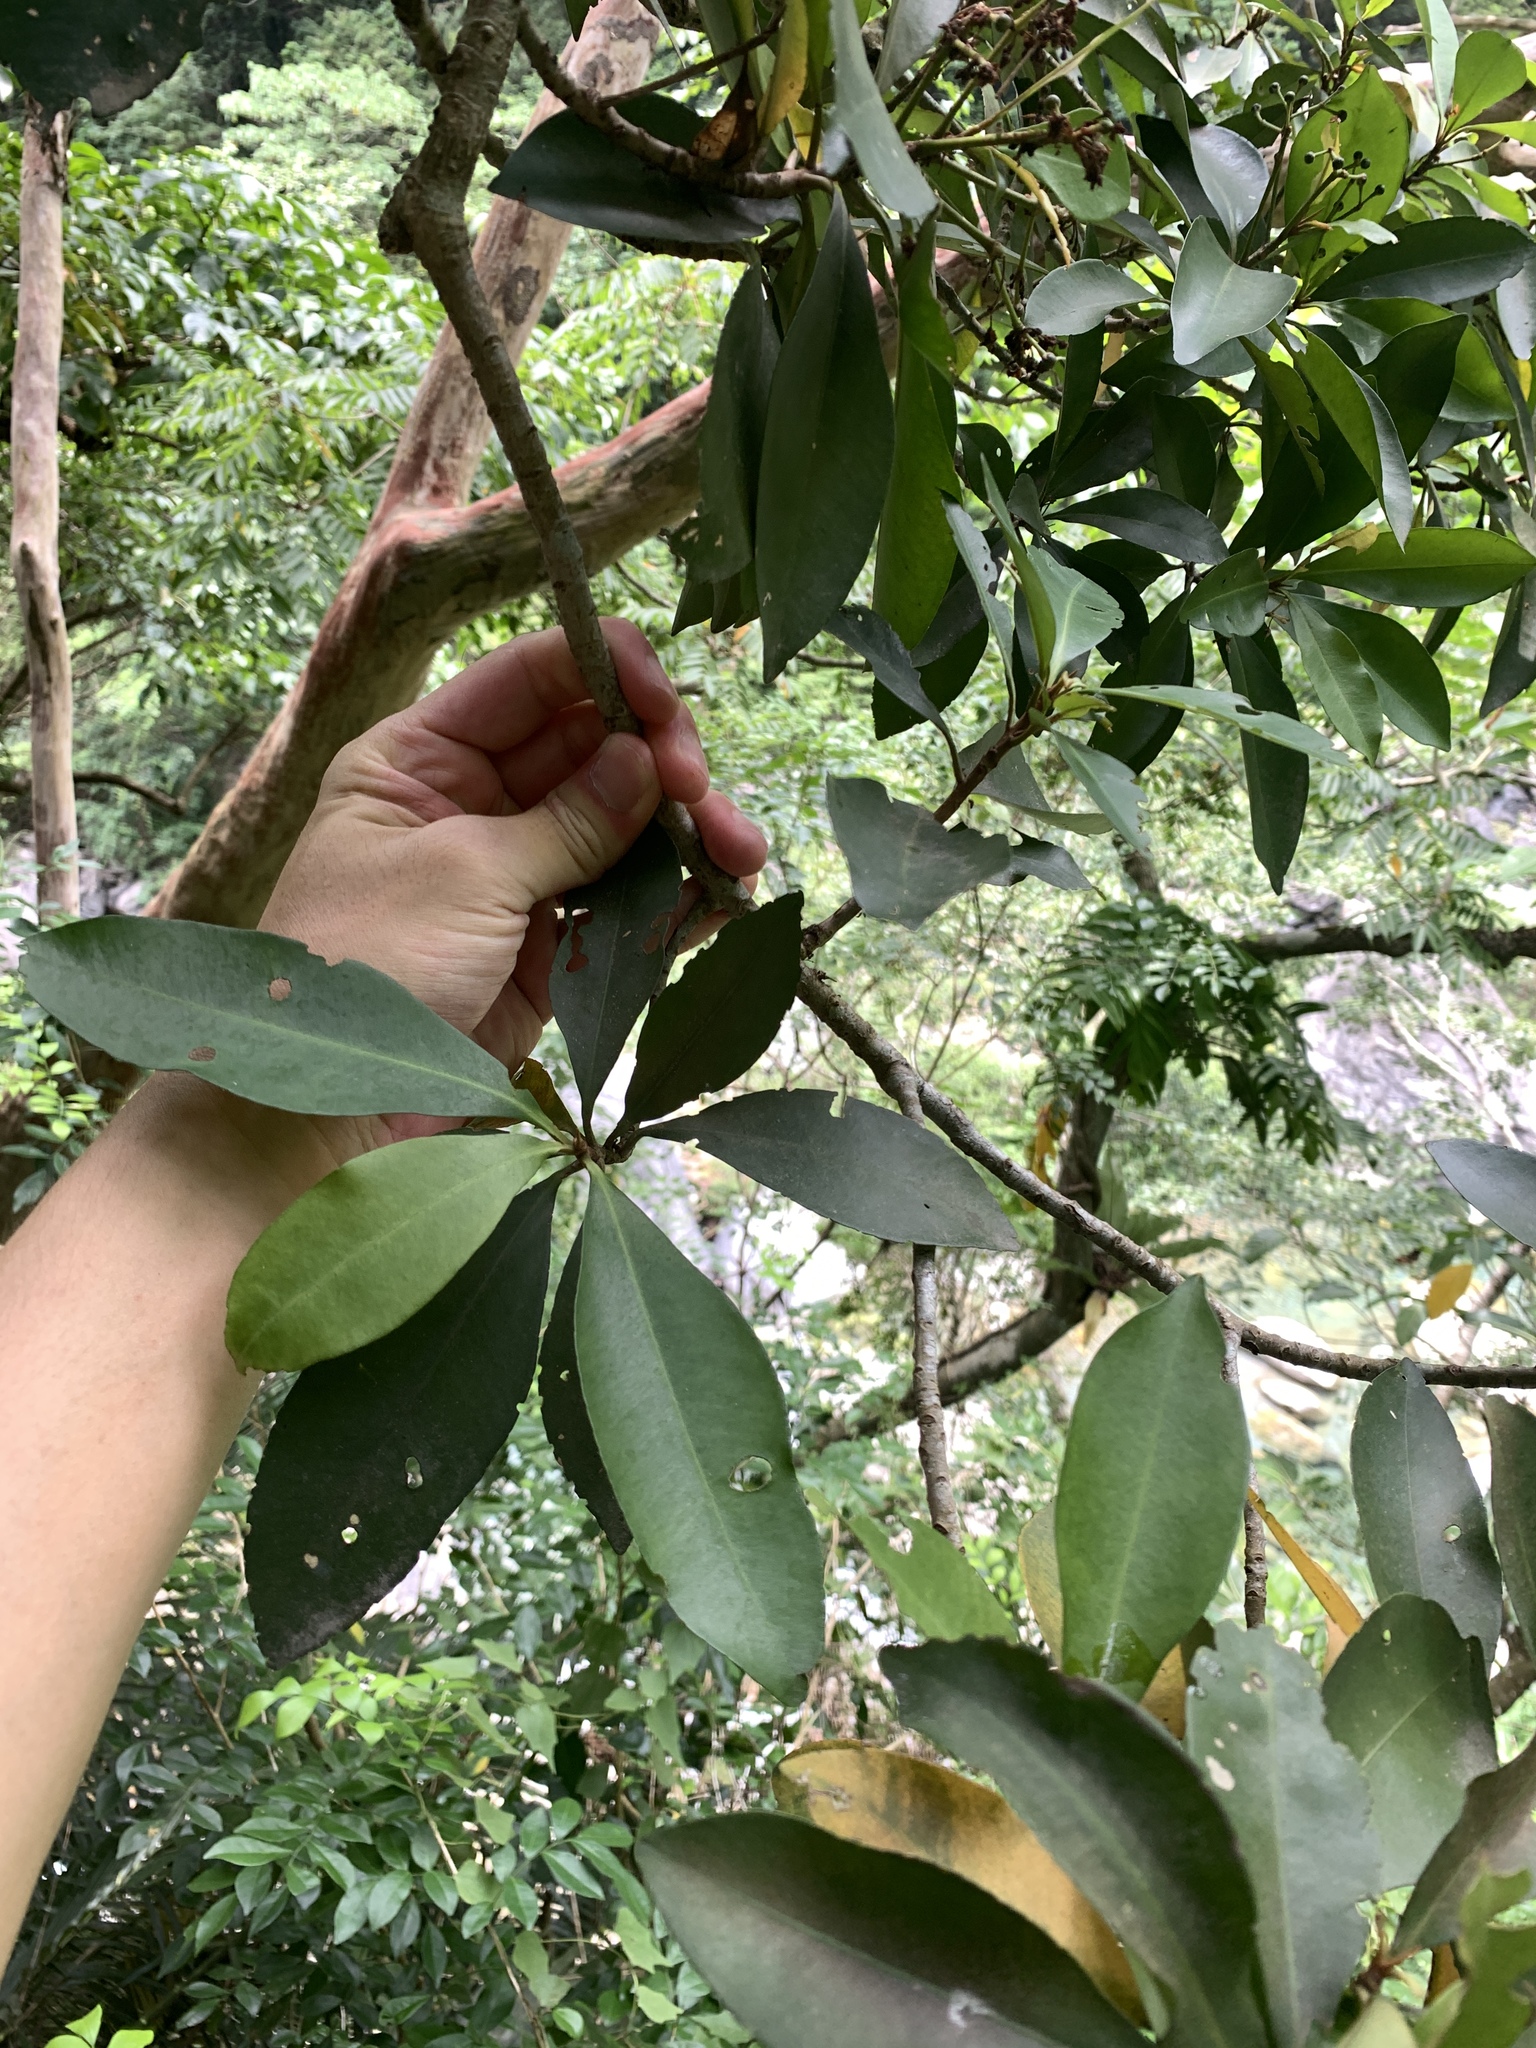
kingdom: Plantae
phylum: Tracheophyta
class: Magnoliopsida
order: Ericales
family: Primulaceae
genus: Ardisia
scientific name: Ardisia sieboldii
